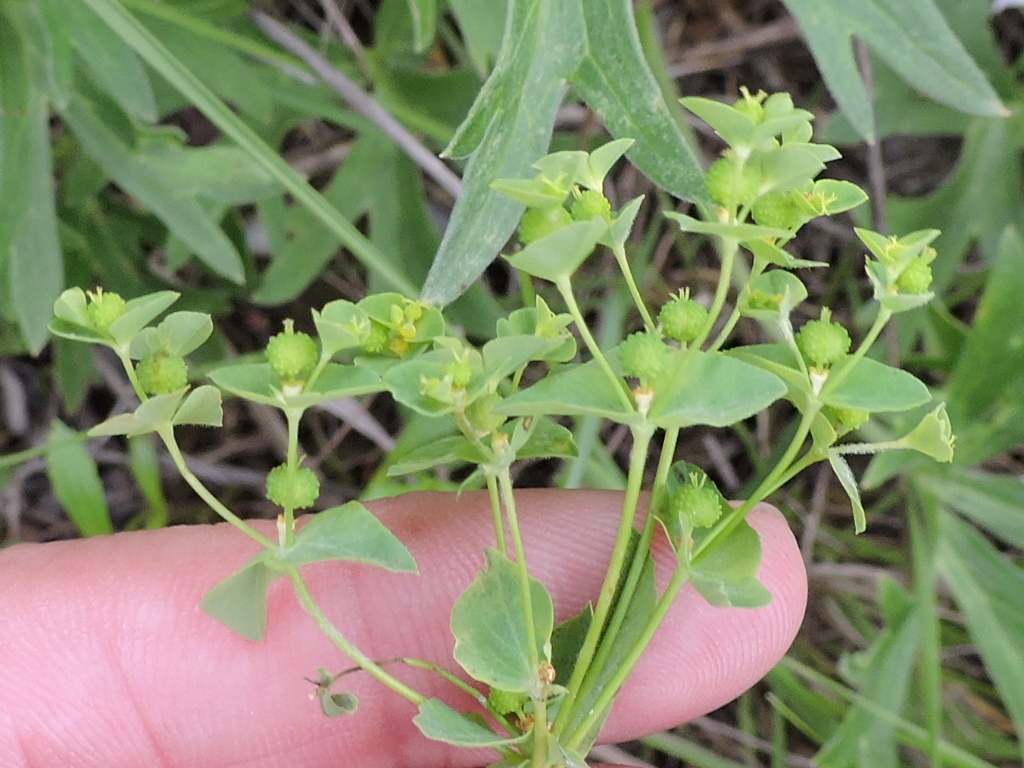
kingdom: Plantae
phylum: Tracheophyta
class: Magnoliopsida
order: Malpighiales
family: Euphorbiaceae
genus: Euphorbia
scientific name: Euphorbia spathulata
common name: Blunt spurge
